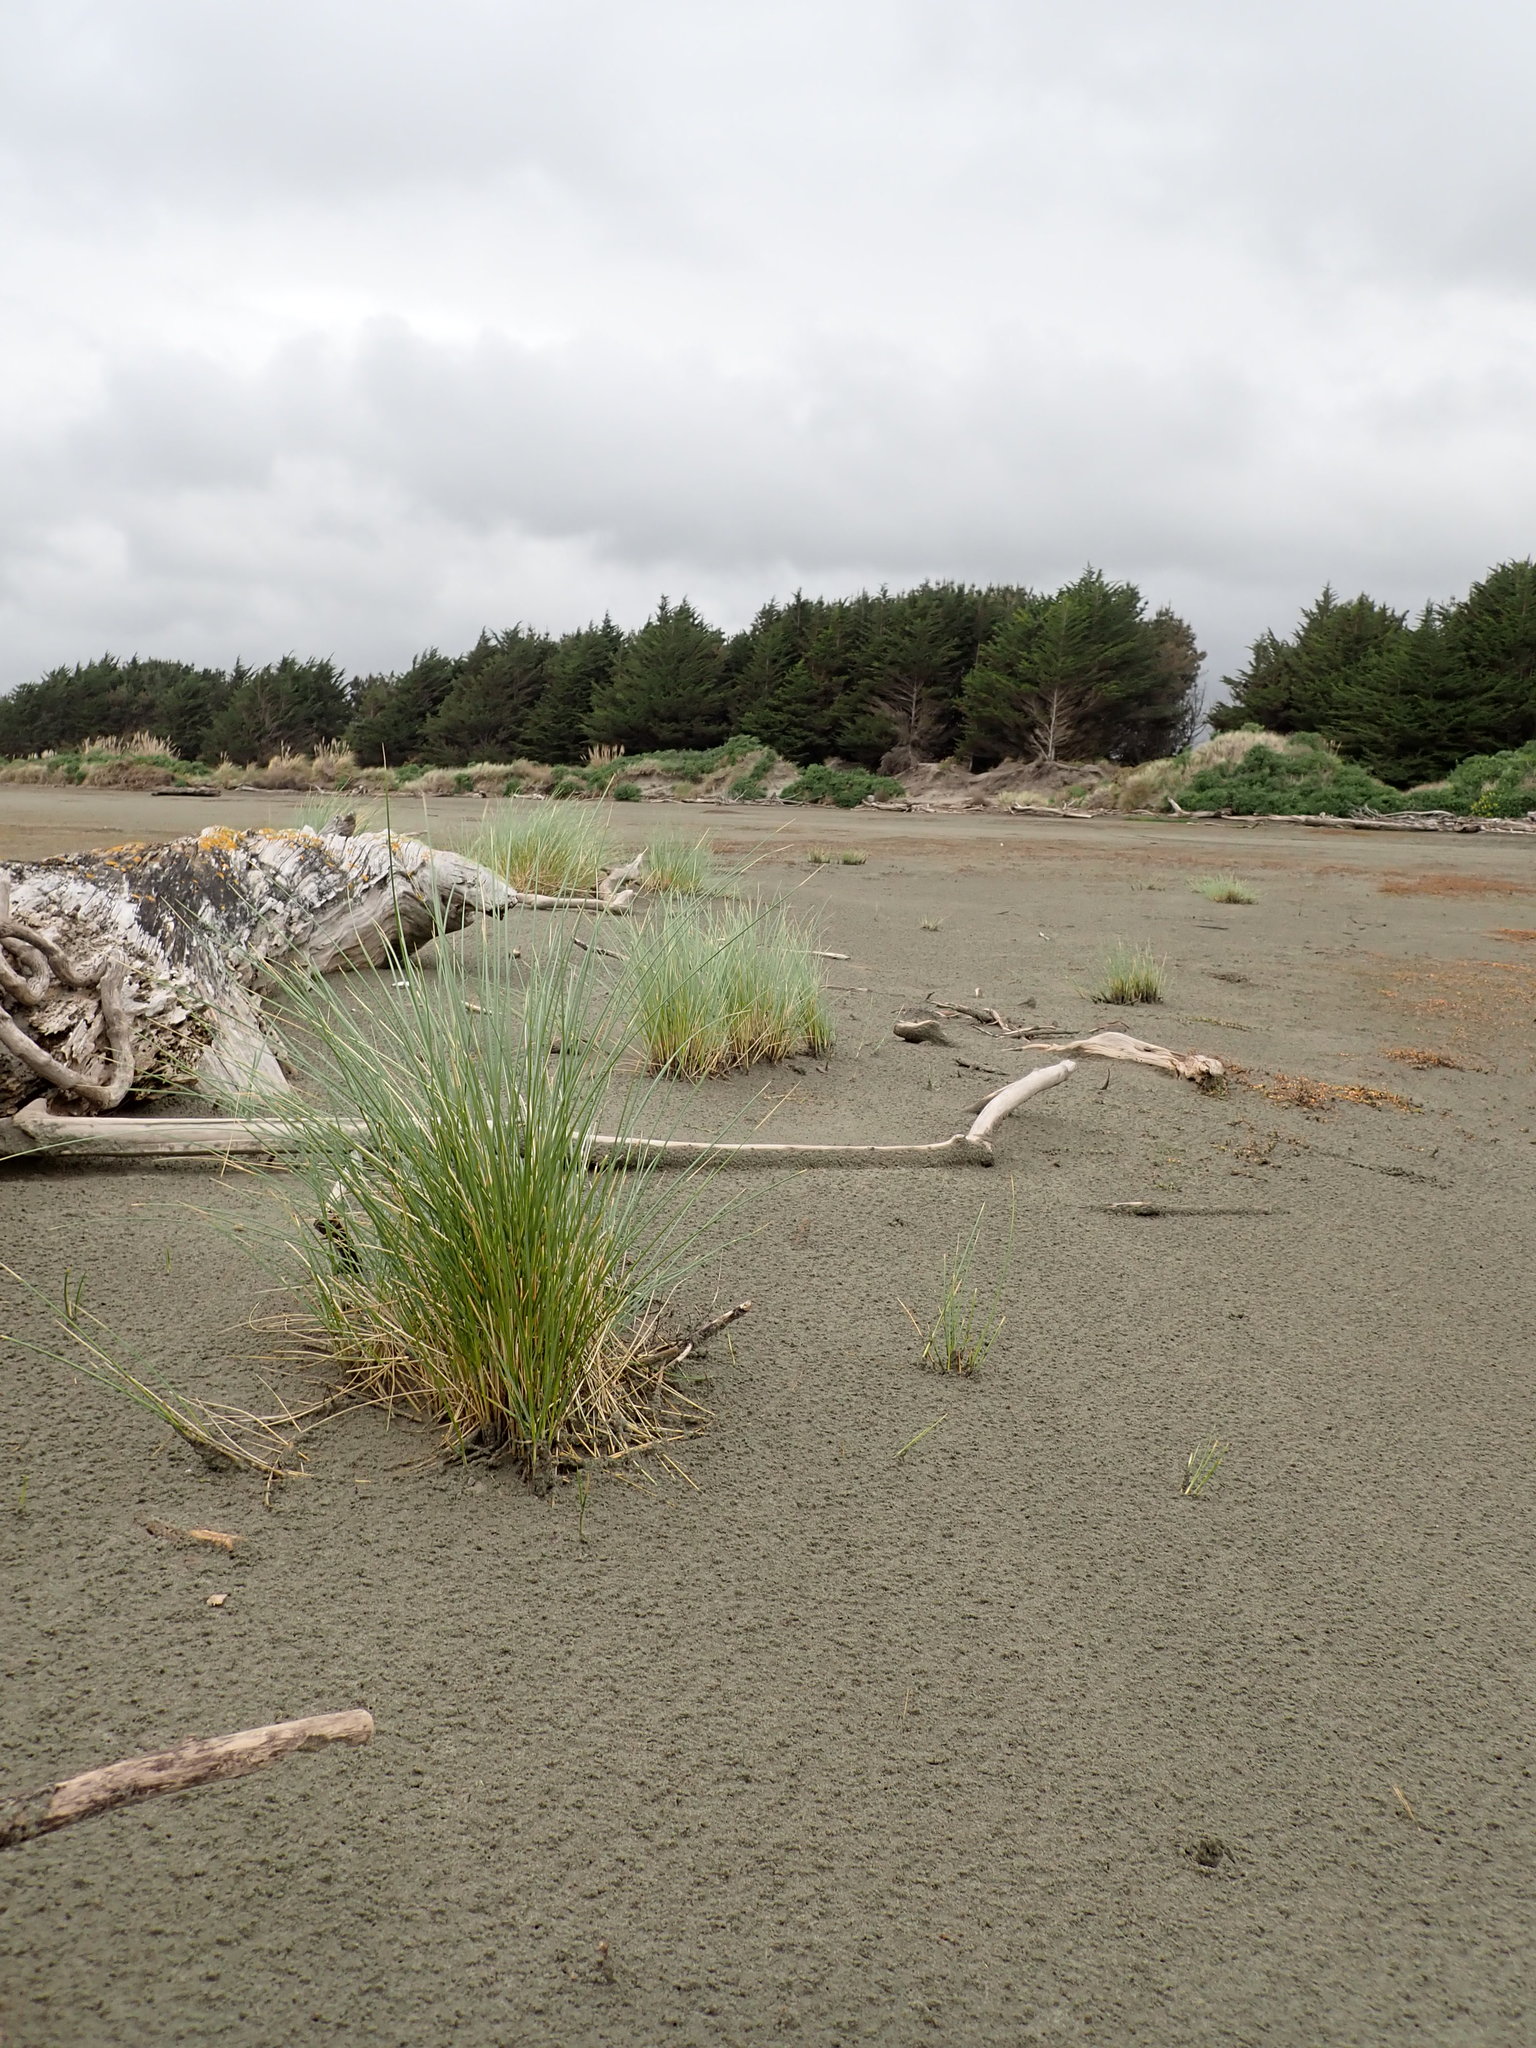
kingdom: Plantae
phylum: Tracheophyta
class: Liliopsida
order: Poales
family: Poaceae
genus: Calamagrostis
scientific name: Calamagrostis arenaria
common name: European beachgrass
